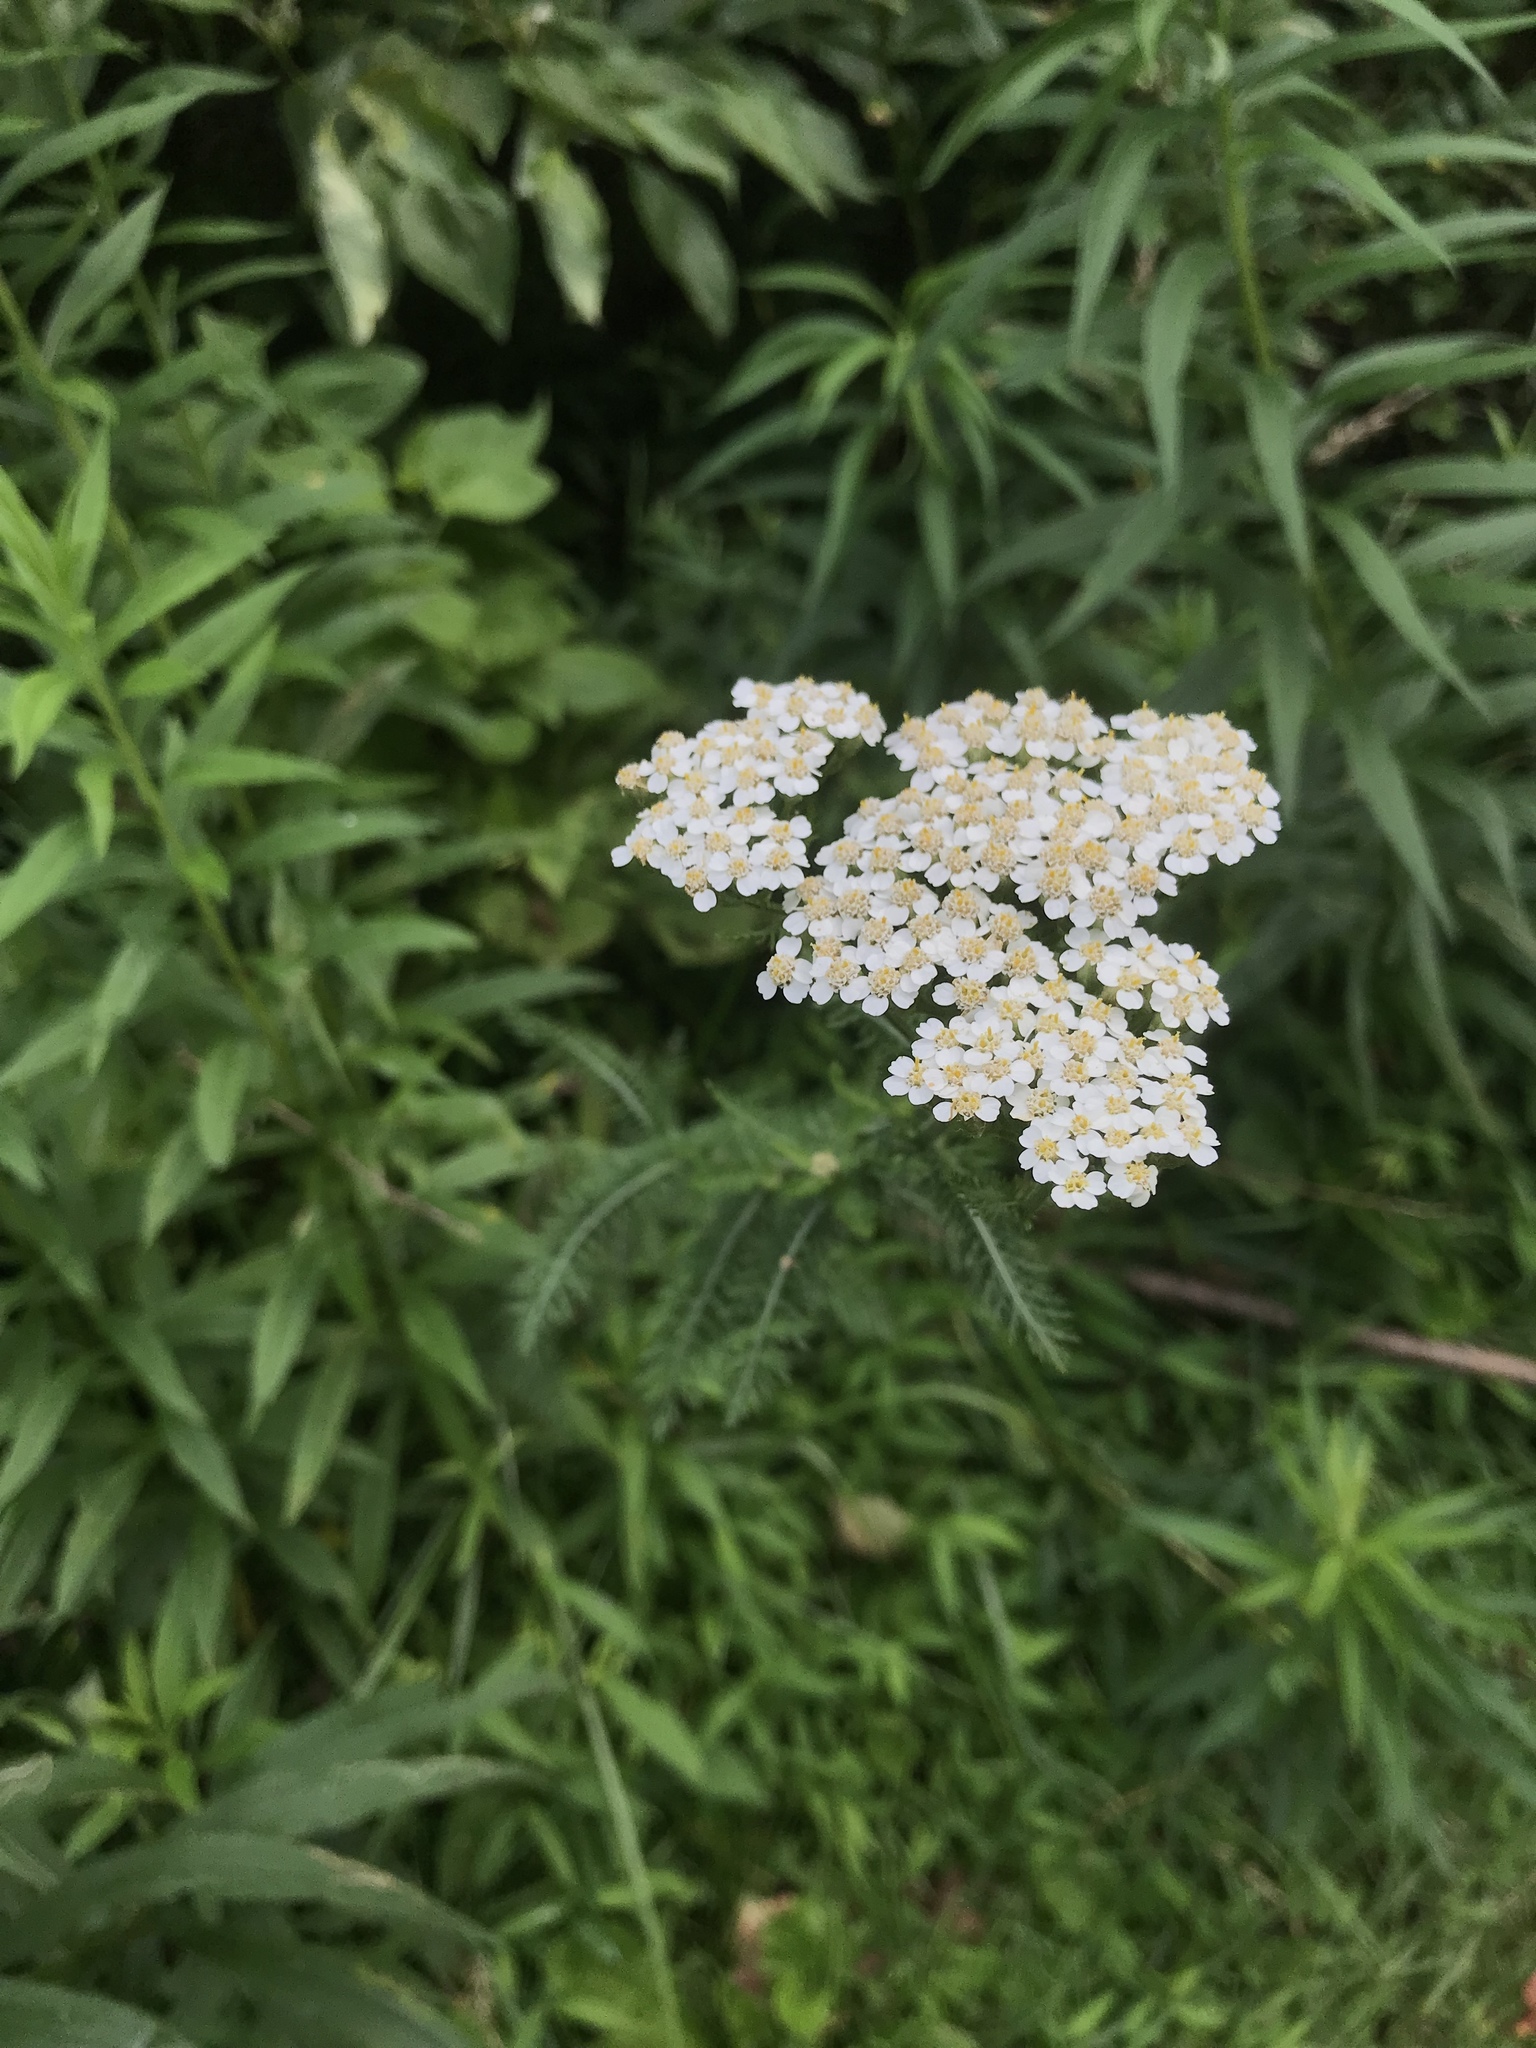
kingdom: Plantae
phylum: Tracheophyta
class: Magnoliopsida
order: Asterales
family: Asteraceae
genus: Achillea
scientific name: Achillea millefolium
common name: Yarrow
